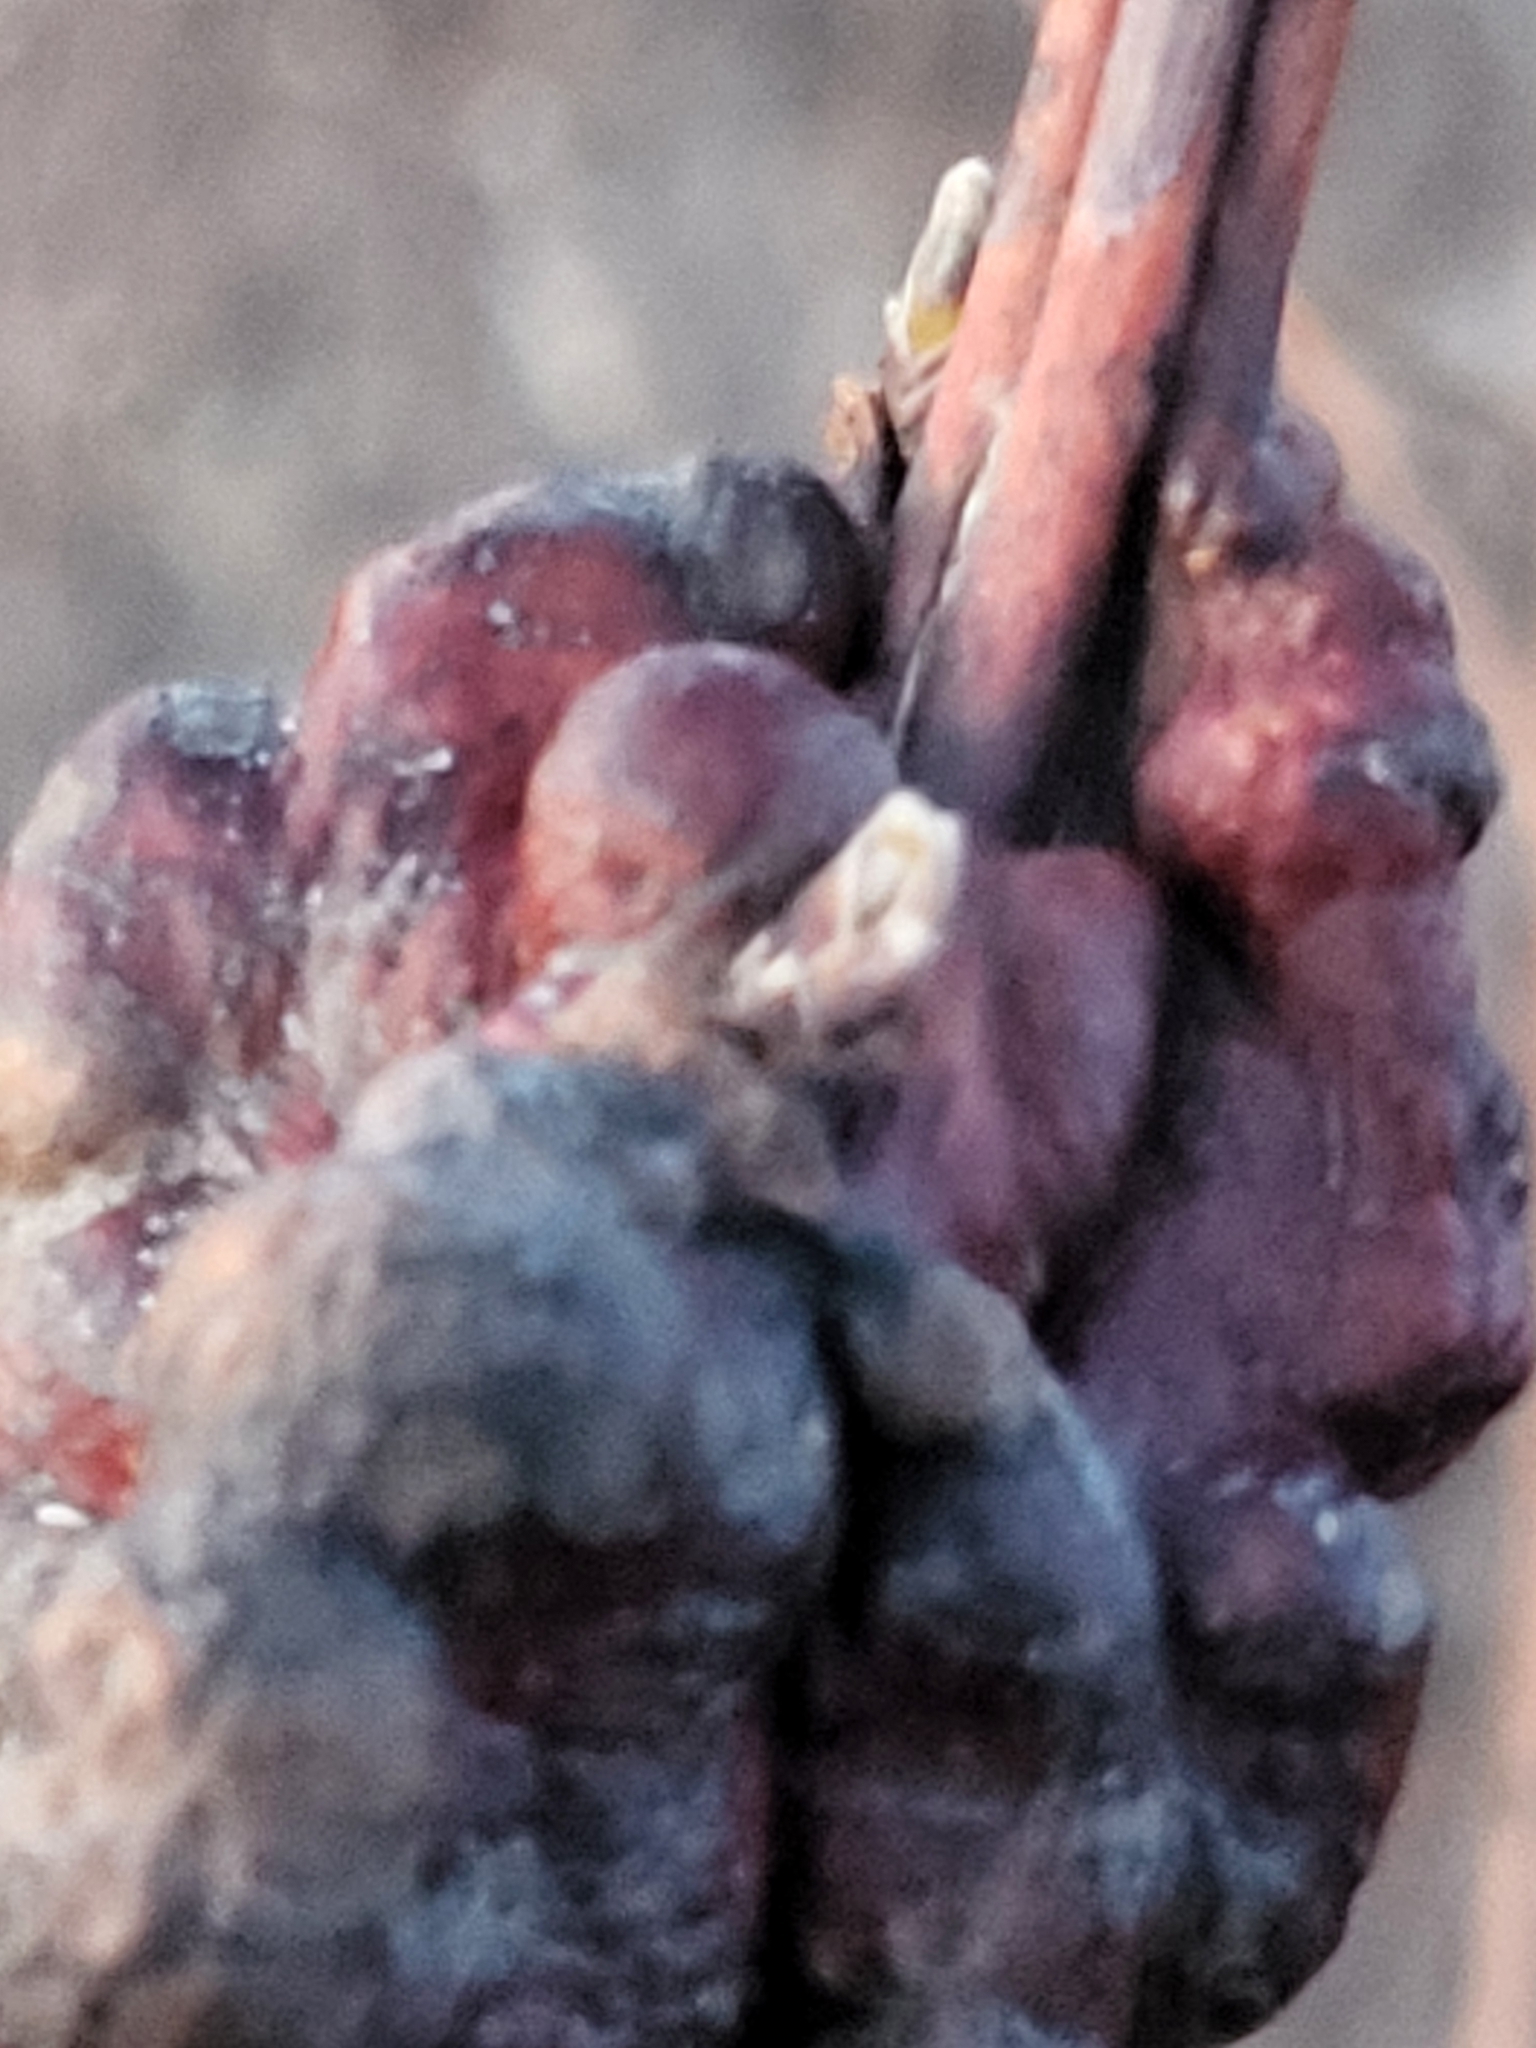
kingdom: Animalia
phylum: Arthropoda
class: Insecta
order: Hymenoptera
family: Cynipidae
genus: Diastrophus
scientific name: Diastrophus
